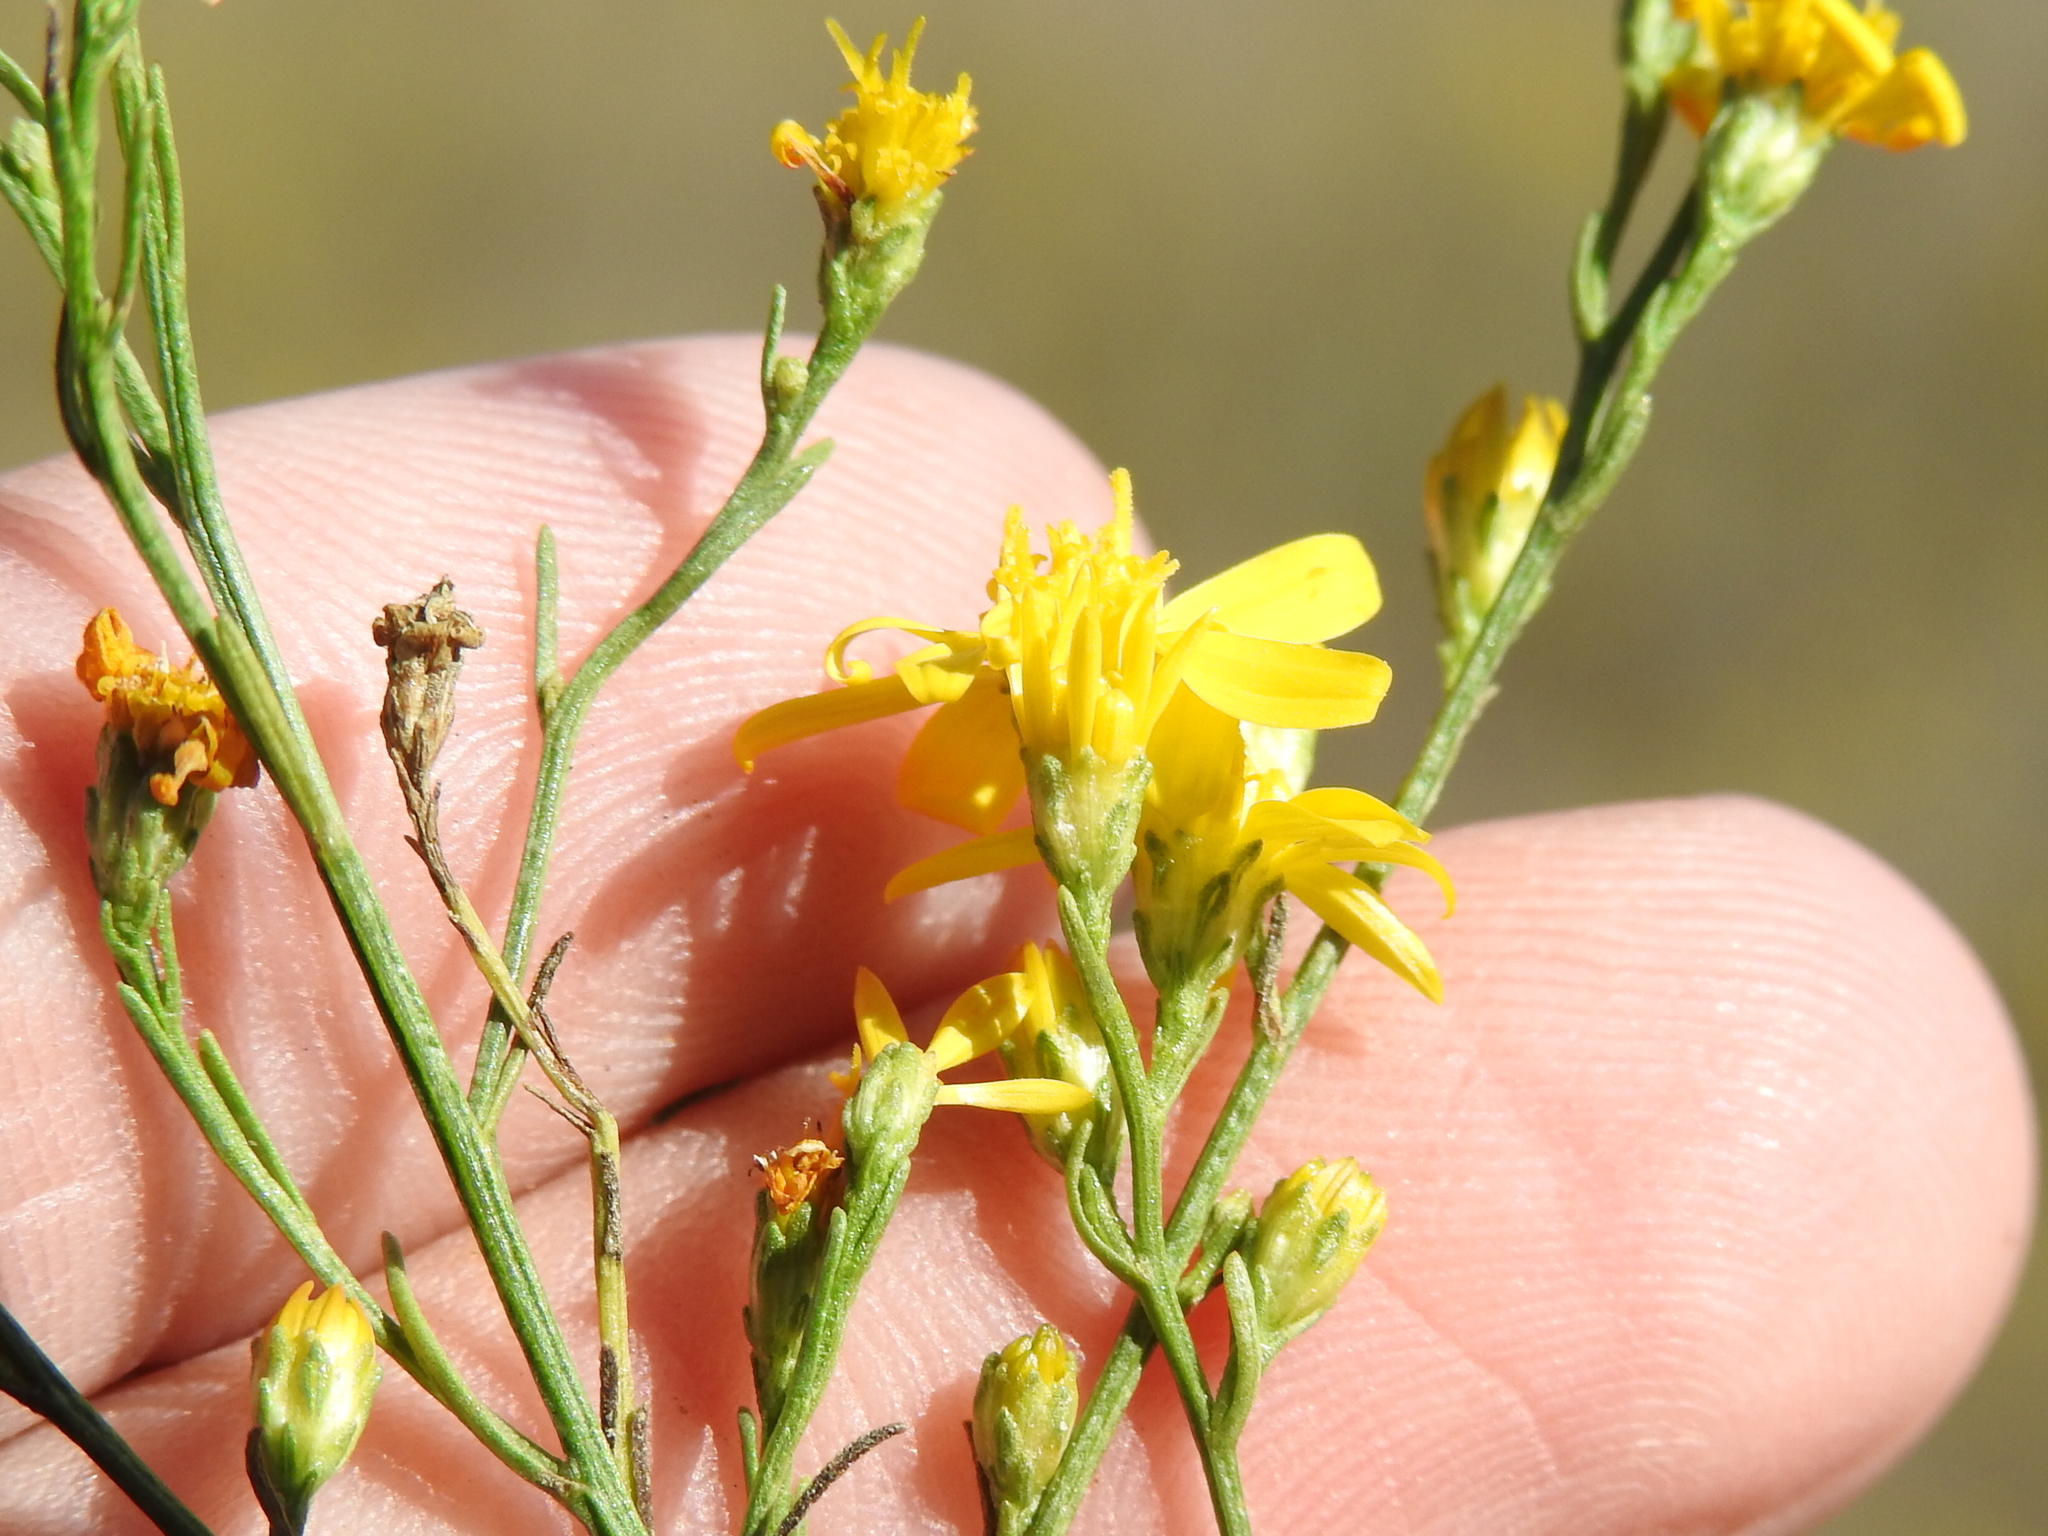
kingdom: Plantae
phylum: Tracheophyta
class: Magnoliopsida
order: Asterales
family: Asteraceae
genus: Gutierrezia
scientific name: Gutierrezia texana
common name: Texas snakeweed
